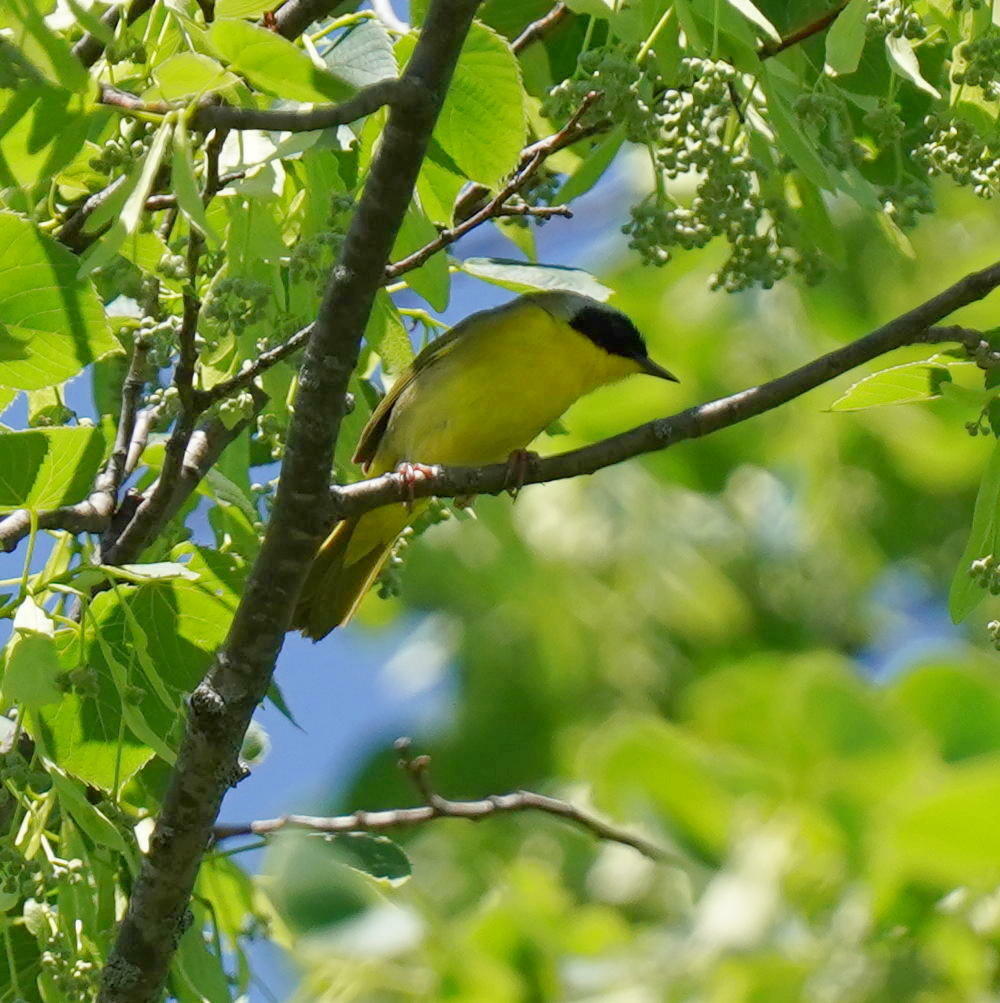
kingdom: Animalia
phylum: Chordata
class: Aves
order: Passeriformes
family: Parulidae
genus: Geothlypis
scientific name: Geothlypis trichas
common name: Common yellowthroat
